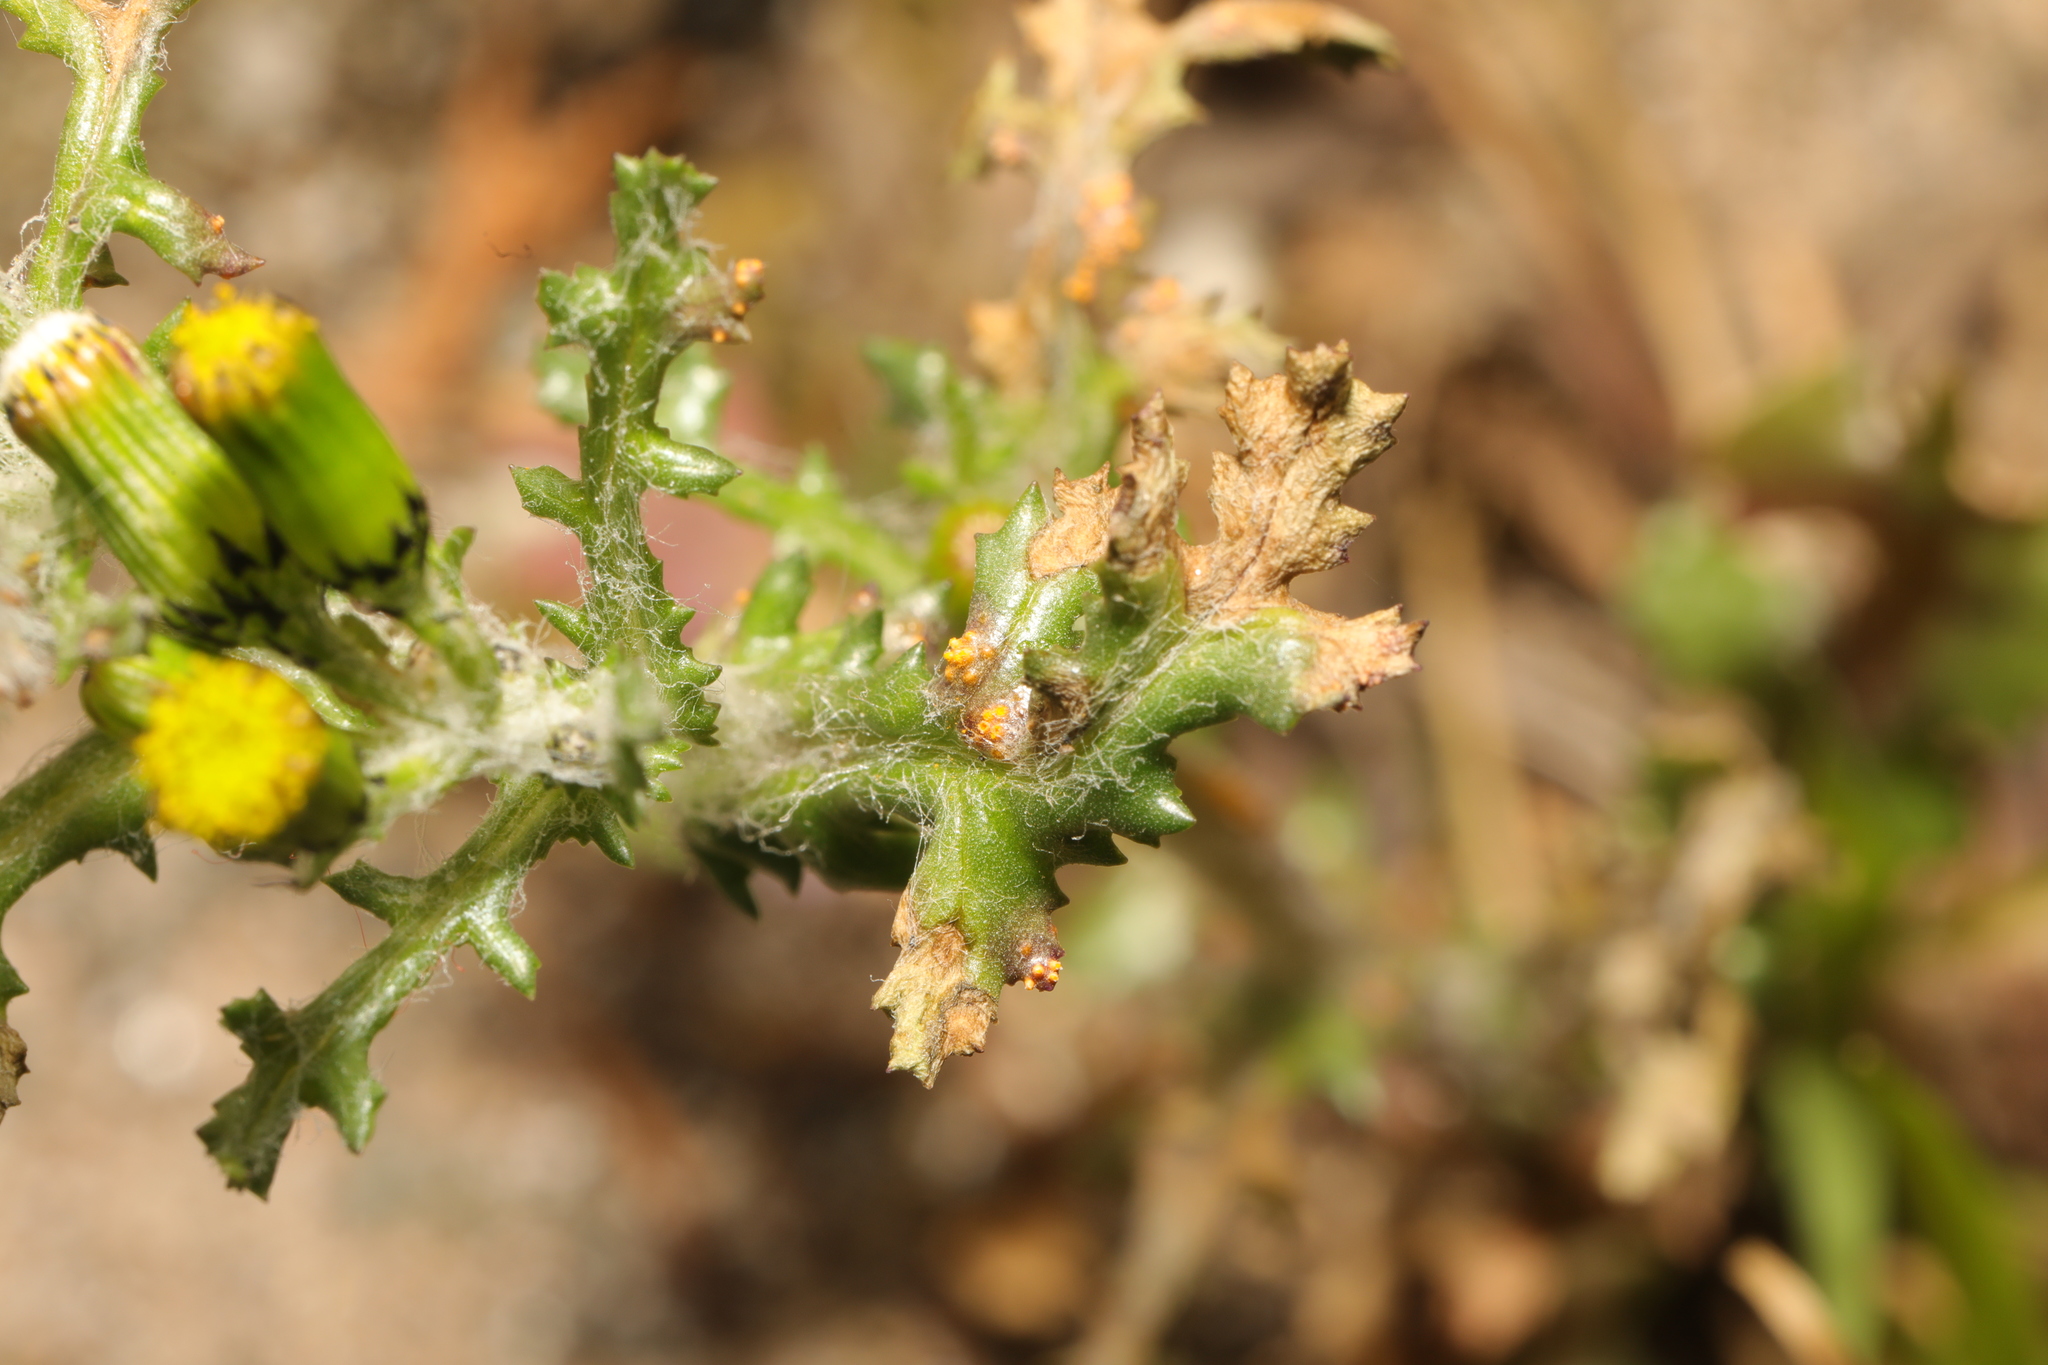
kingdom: Fungi
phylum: Basidiomycota
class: Pucciniomycetes
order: Pucciniales
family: Pucciniaceae
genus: Puccinia
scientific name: Puccinia lagenophorae
